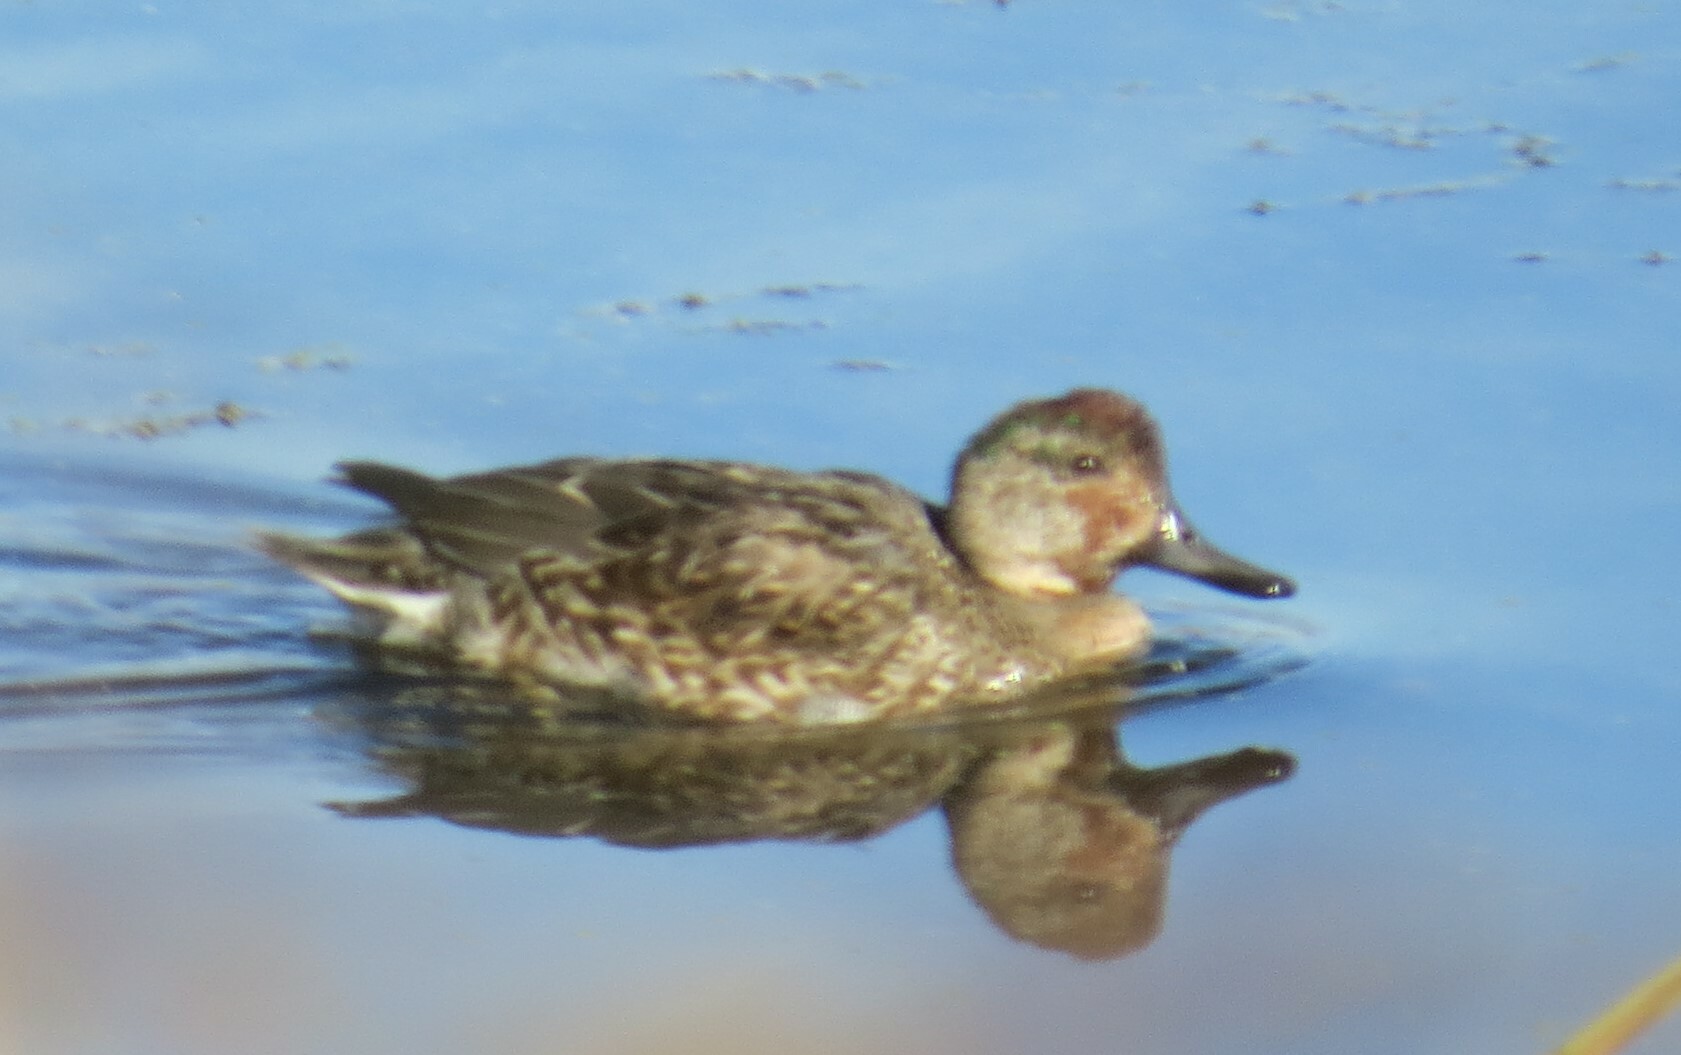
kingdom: Animalia
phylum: Chordata
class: Aves
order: Anseriformes
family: Anatidae
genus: Anas
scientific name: Anas crecca
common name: Eurasian teal
